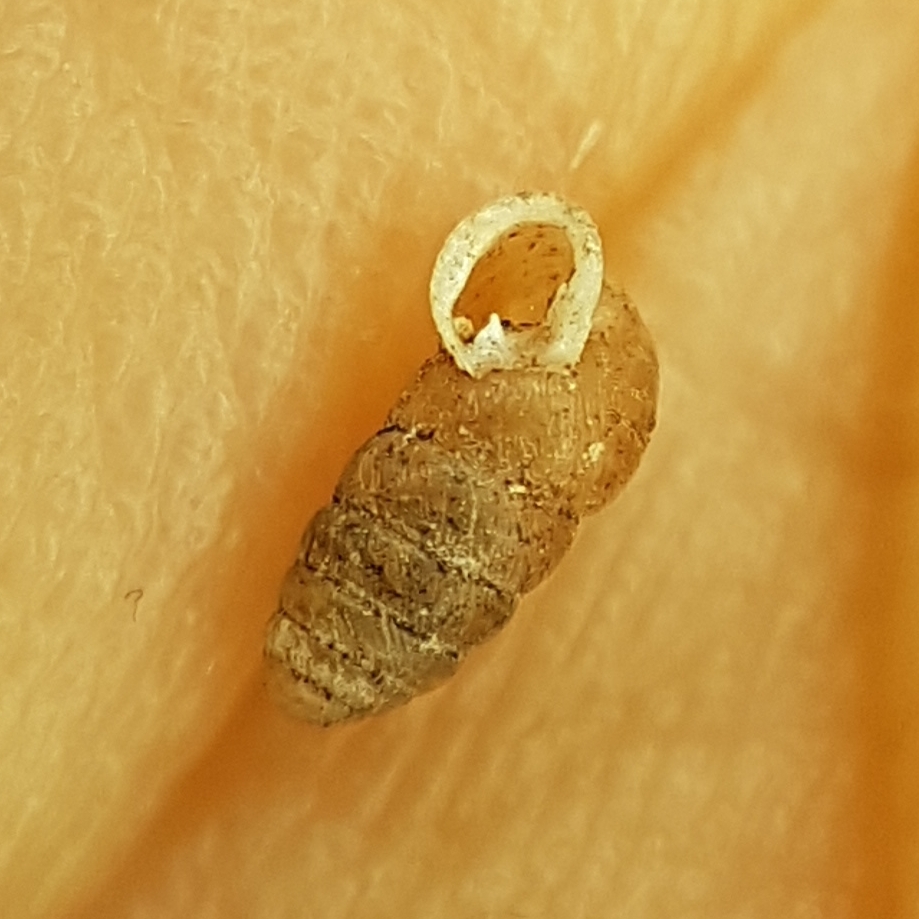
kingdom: Animalia
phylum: Mollusca
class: Gastropoda
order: Stylommatophora
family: Lauriidae
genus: Lauria
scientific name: Lauria cylindracea
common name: Common chrysalis snail
